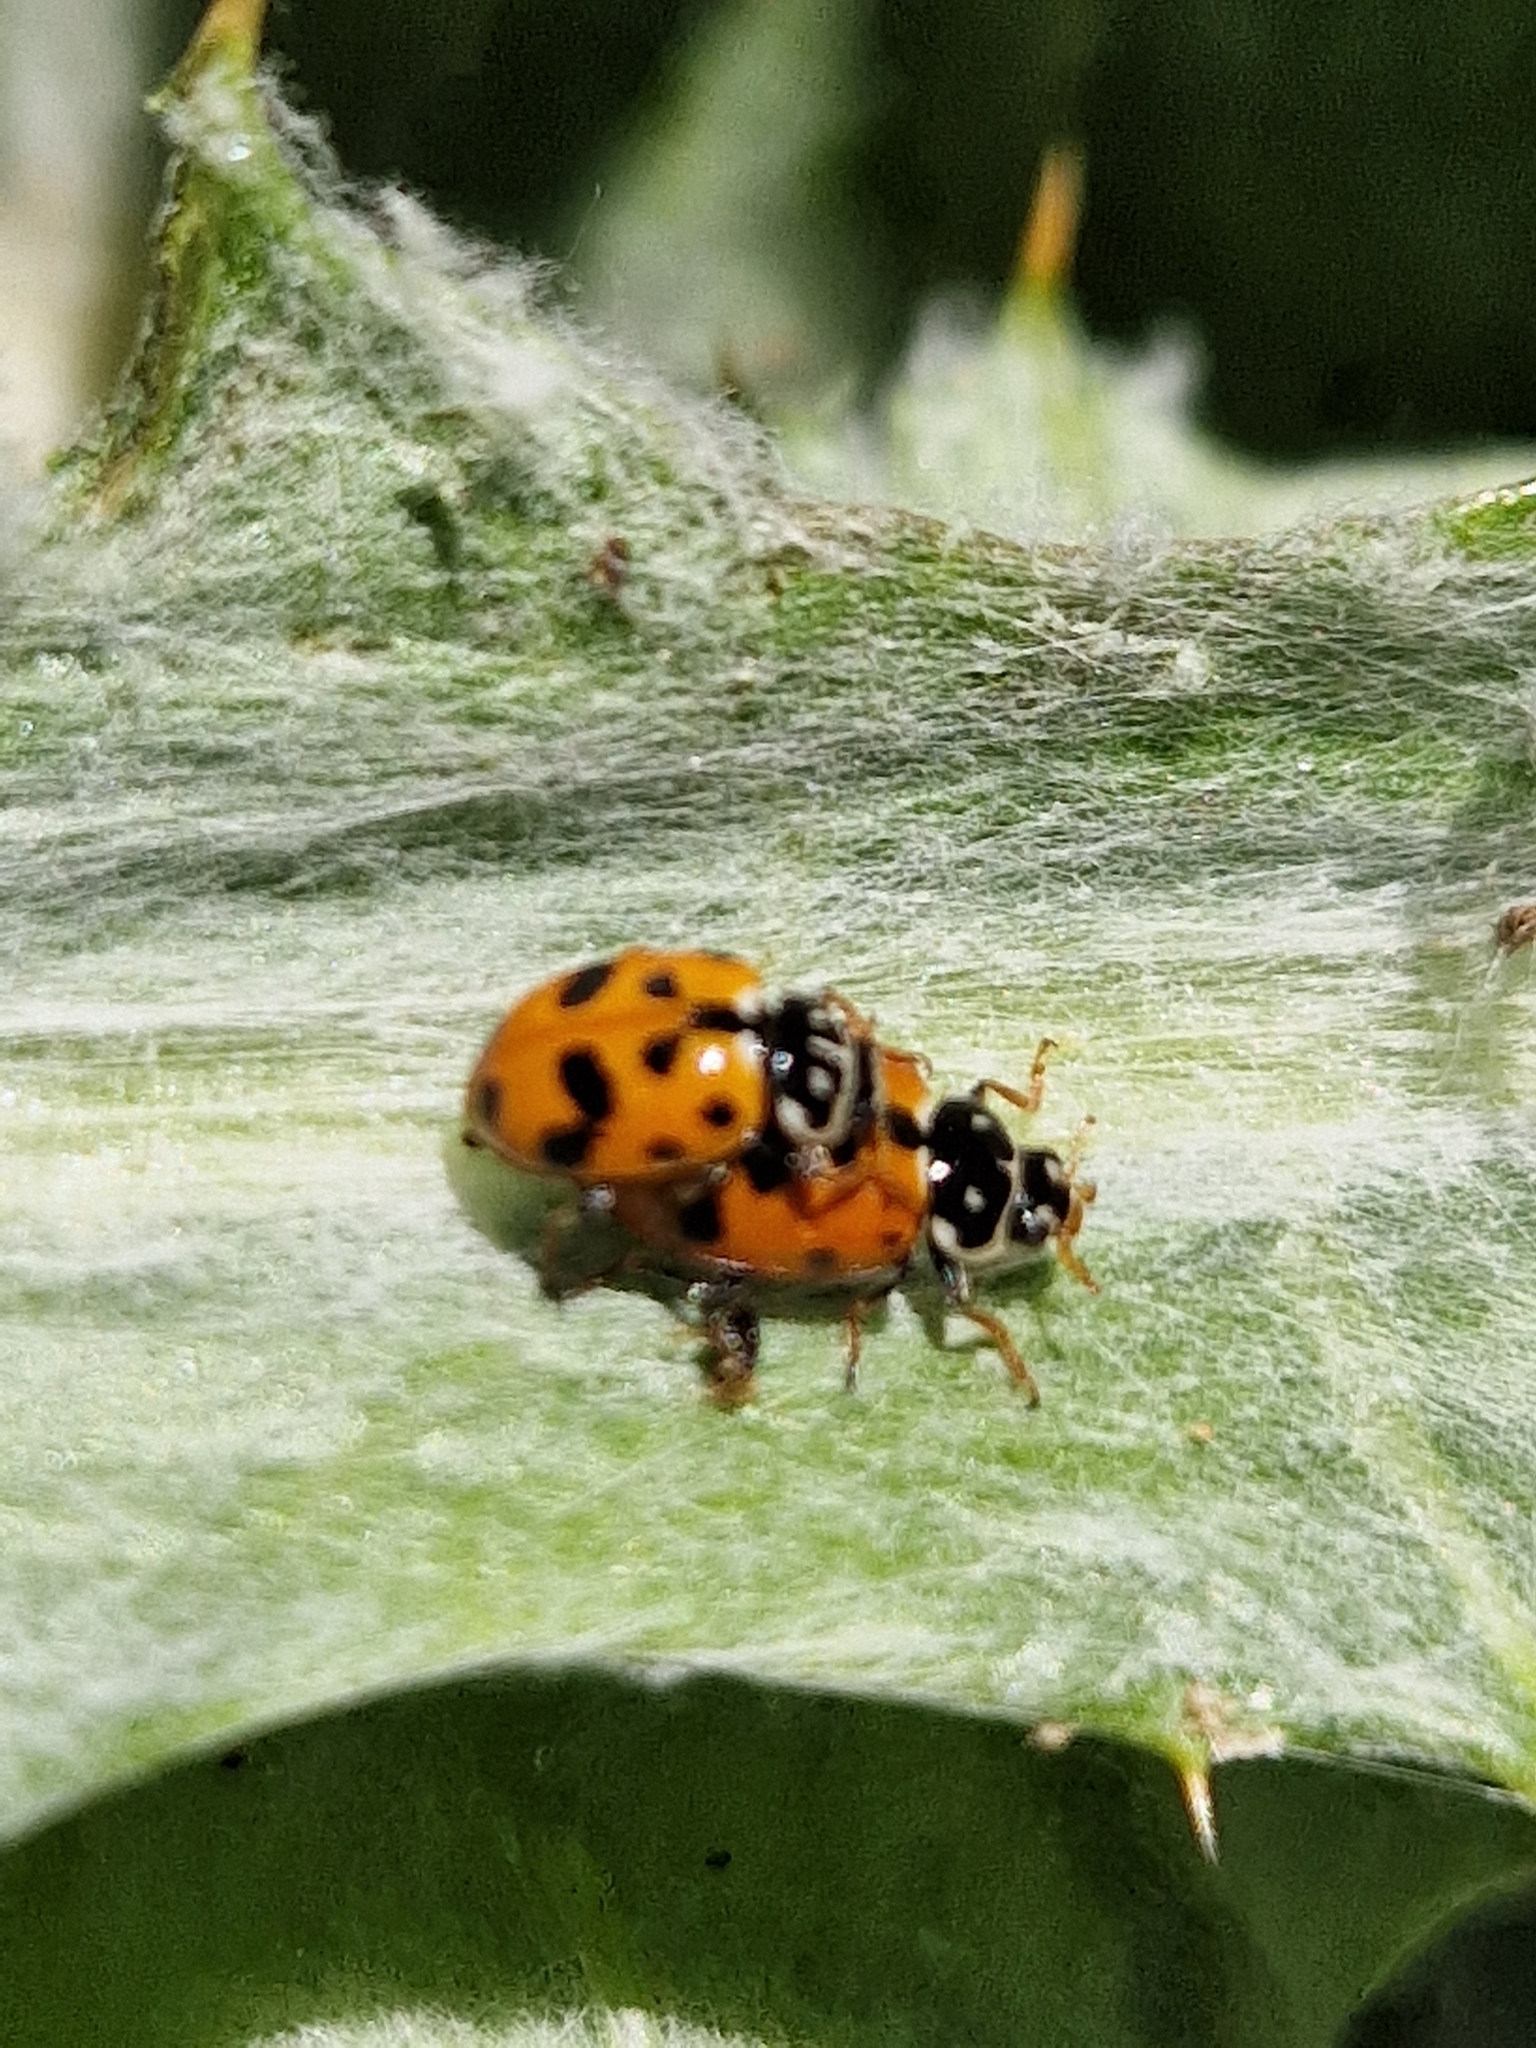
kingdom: Animalia
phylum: Arthropoda
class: Insecta
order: Coleoptera
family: Coccinellidae
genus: Hippodamia
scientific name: Hippodamia variegata
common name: Ladybird beetle
